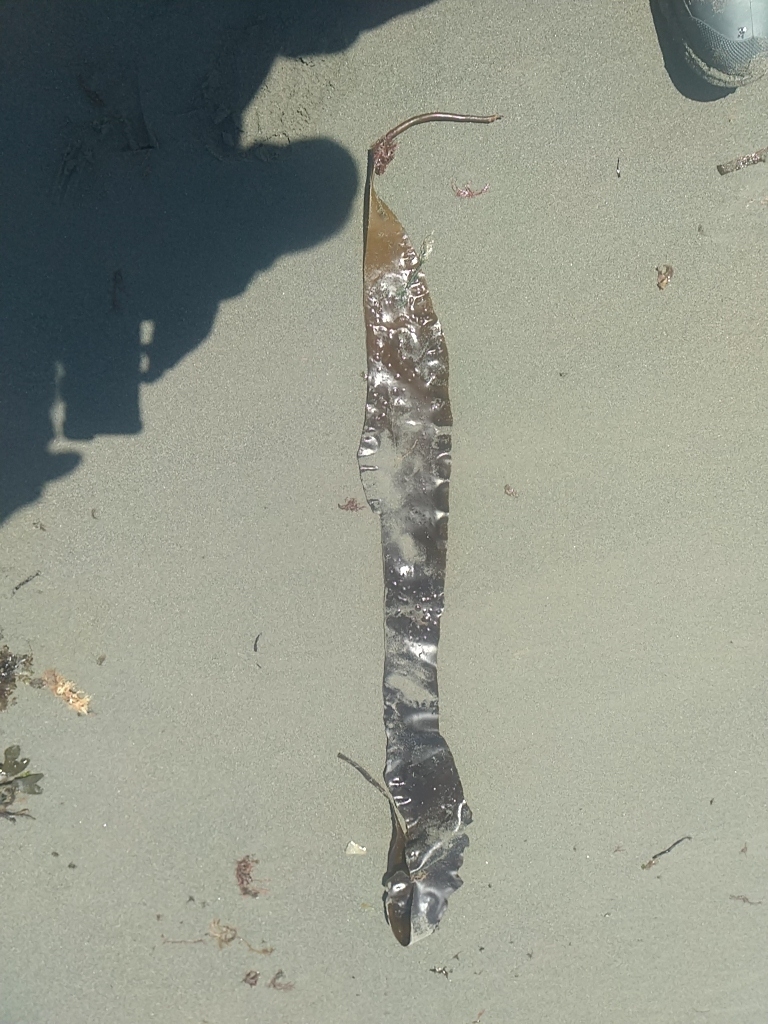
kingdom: Chromista
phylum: Ochrophyta
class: Phaeophyceae
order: Laminariales
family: Laminariaceae
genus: Saccharina
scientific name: Saccharina latissima
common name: Poor man's weather glass
